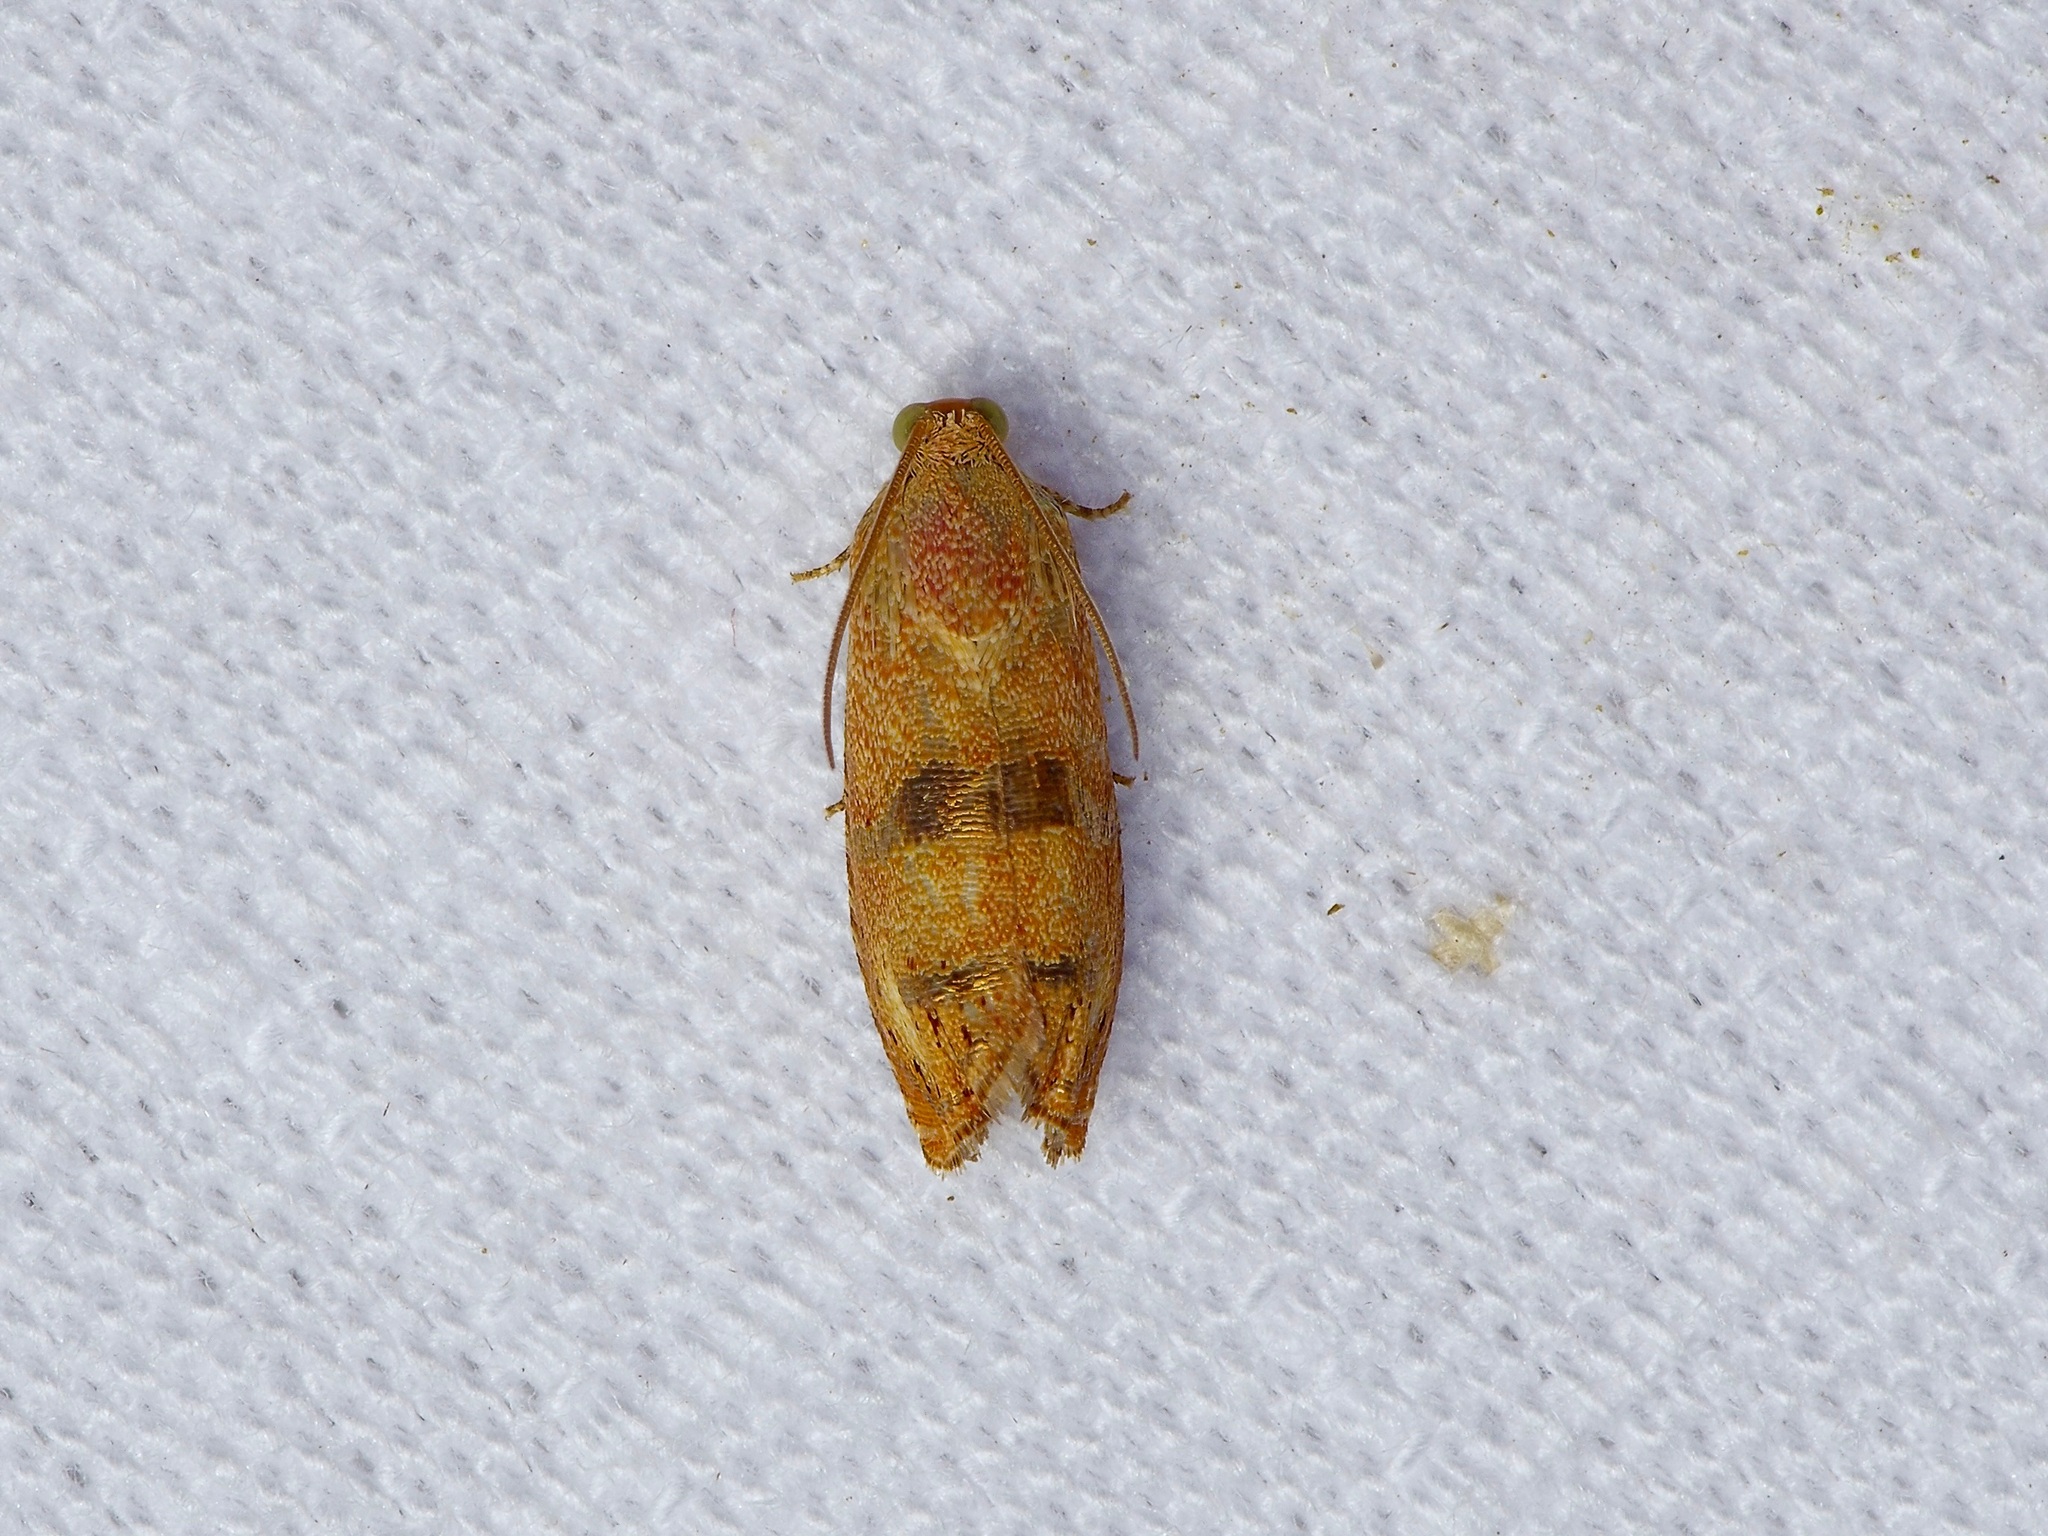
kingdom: Animalia
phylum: Arthropoda
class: Insecta
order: Lepidoptera
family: Tortricidae
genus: Cydia
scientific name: Cydia latiferreana
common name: Filbertworm moth
